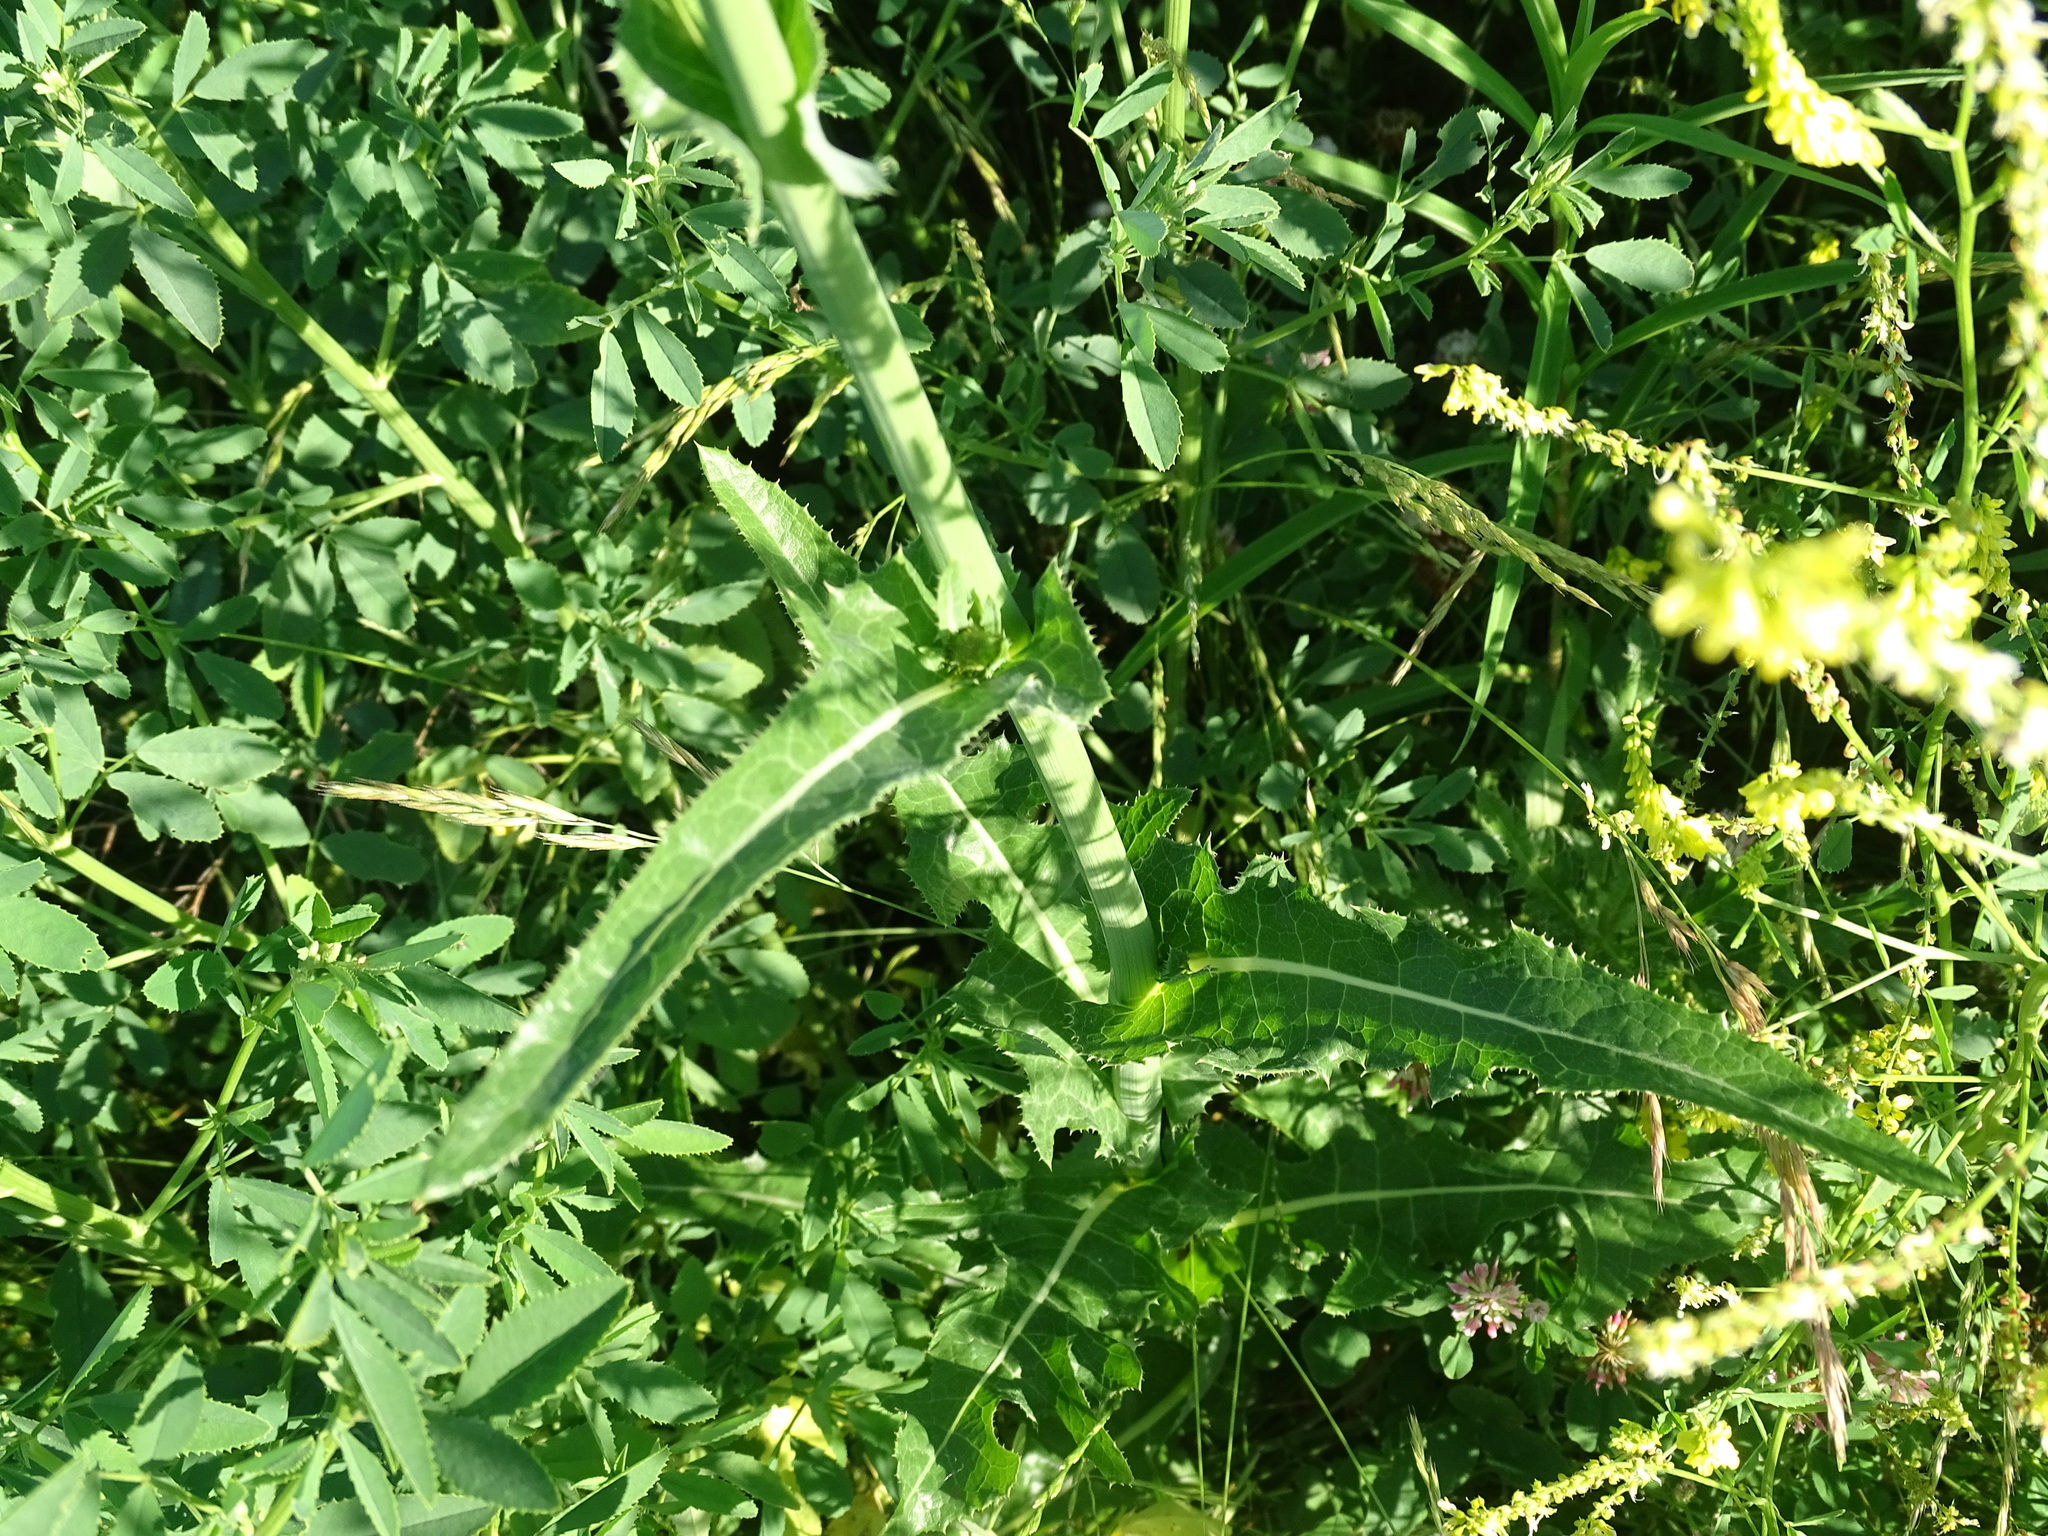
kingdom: Plantae
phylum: Tracheophyta
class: Magnoliopsida
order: Asterales
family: Asteraceae
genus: Sonchus
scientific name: Sonchus arvensis
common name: Perennial sow-thistle
